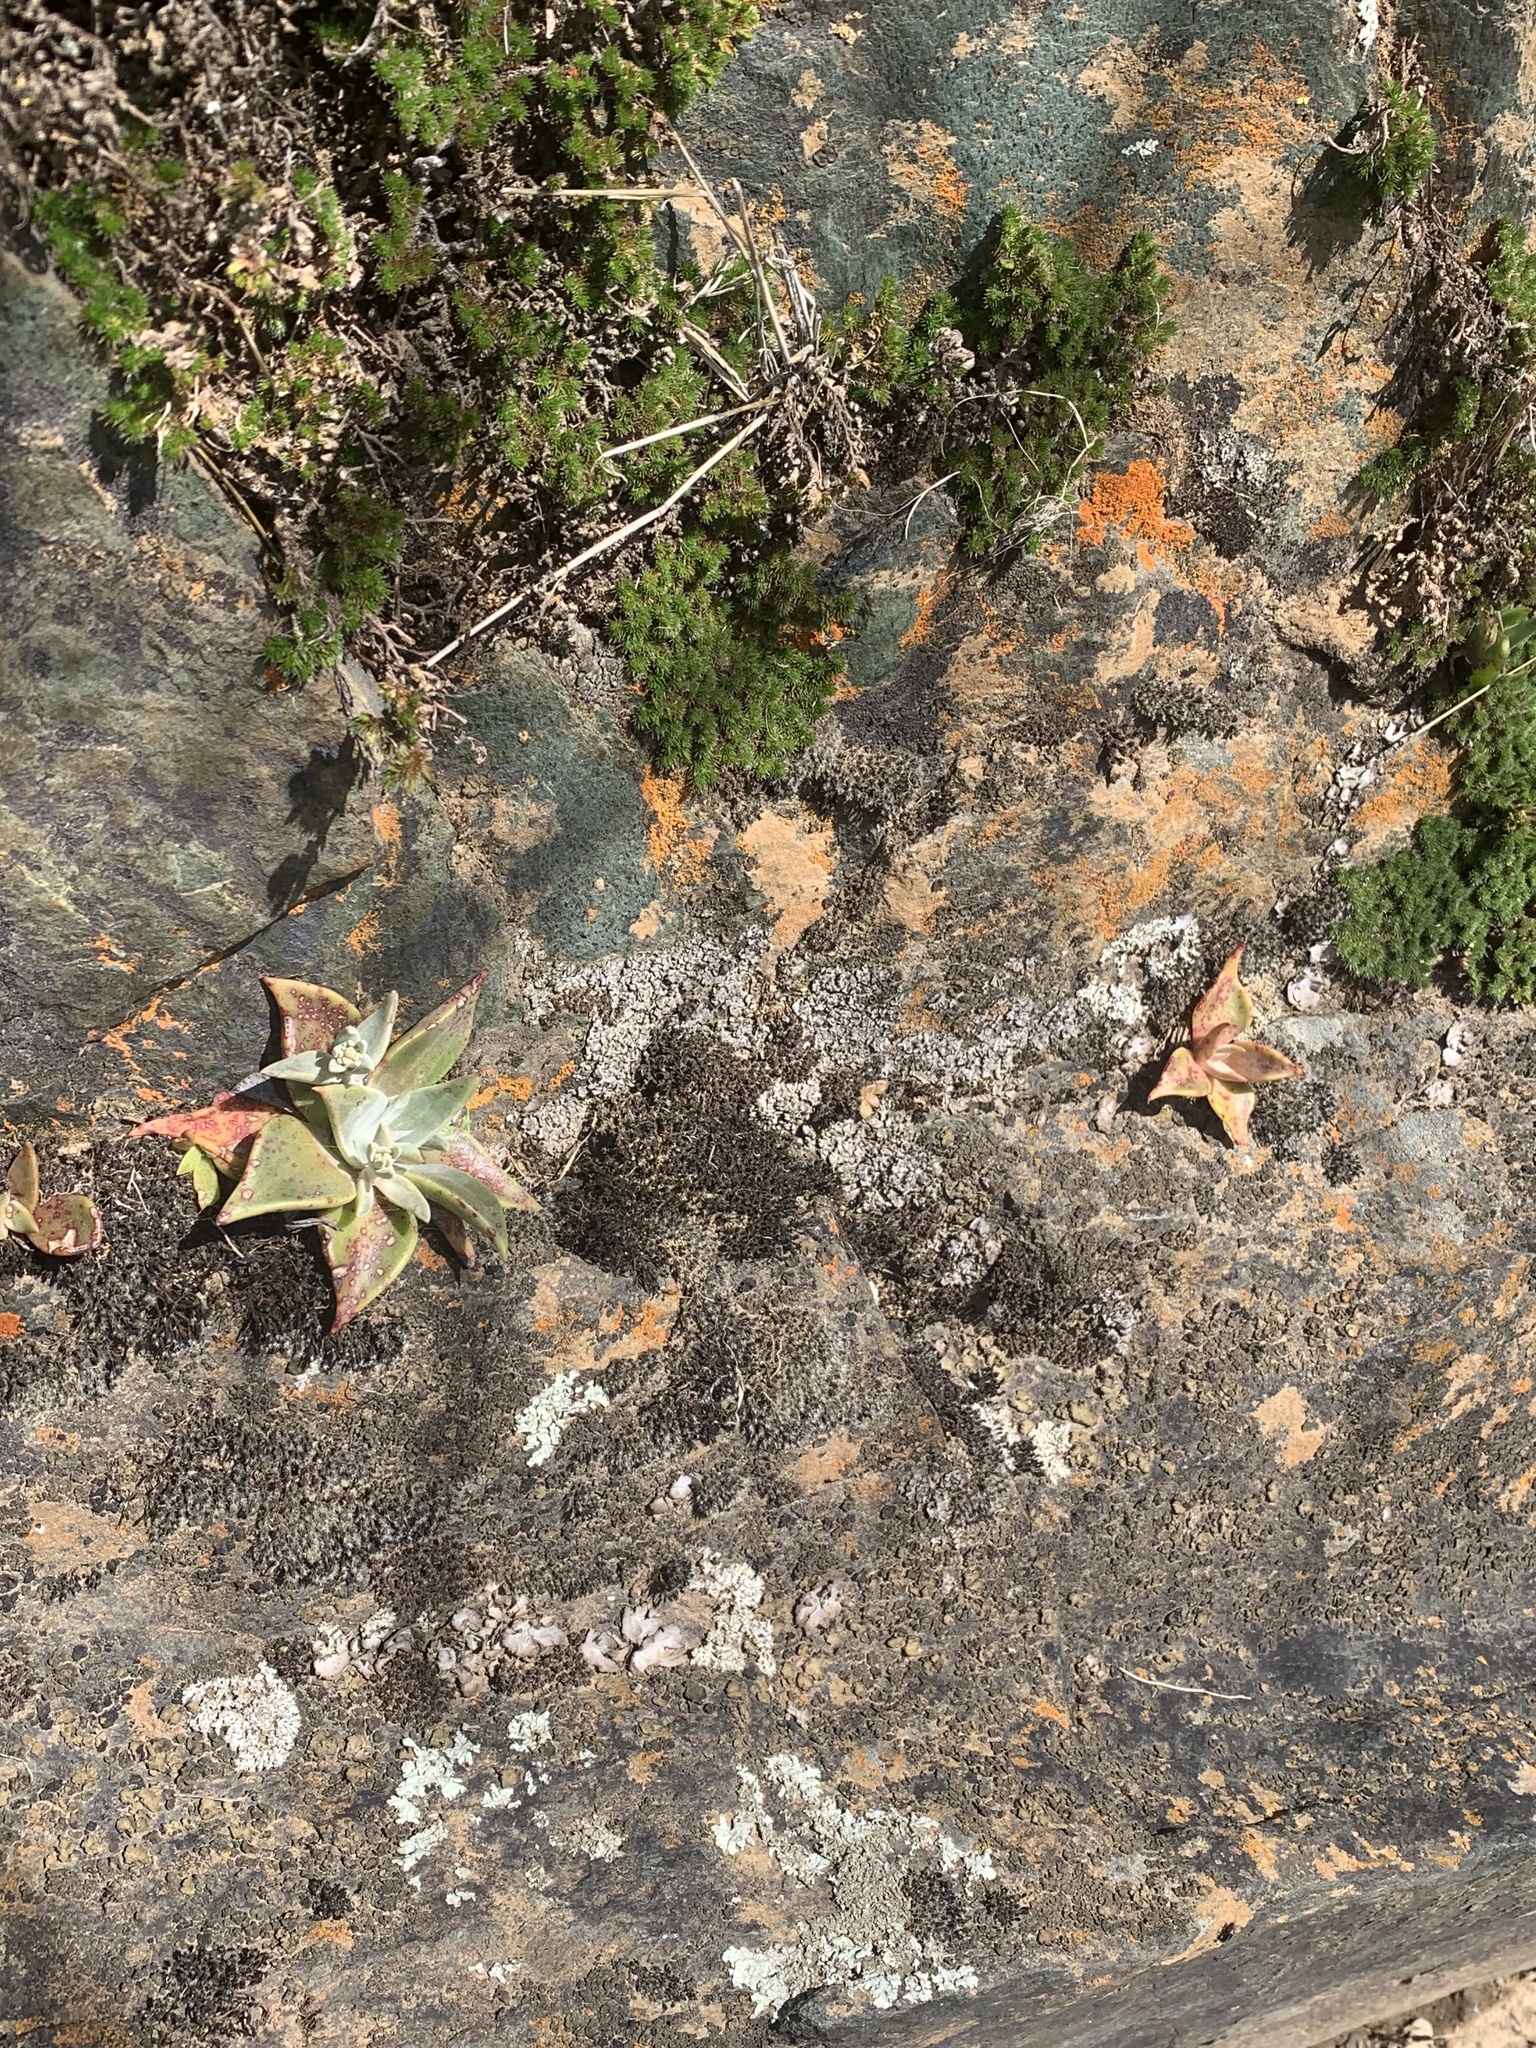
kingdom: Plantae
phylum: Tracheophyta
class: Magnoliopsida
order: Saxifragales
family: Crassulaceae
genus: Dudleya
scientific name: Dudleya cymosa
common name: Canyon dudleya
